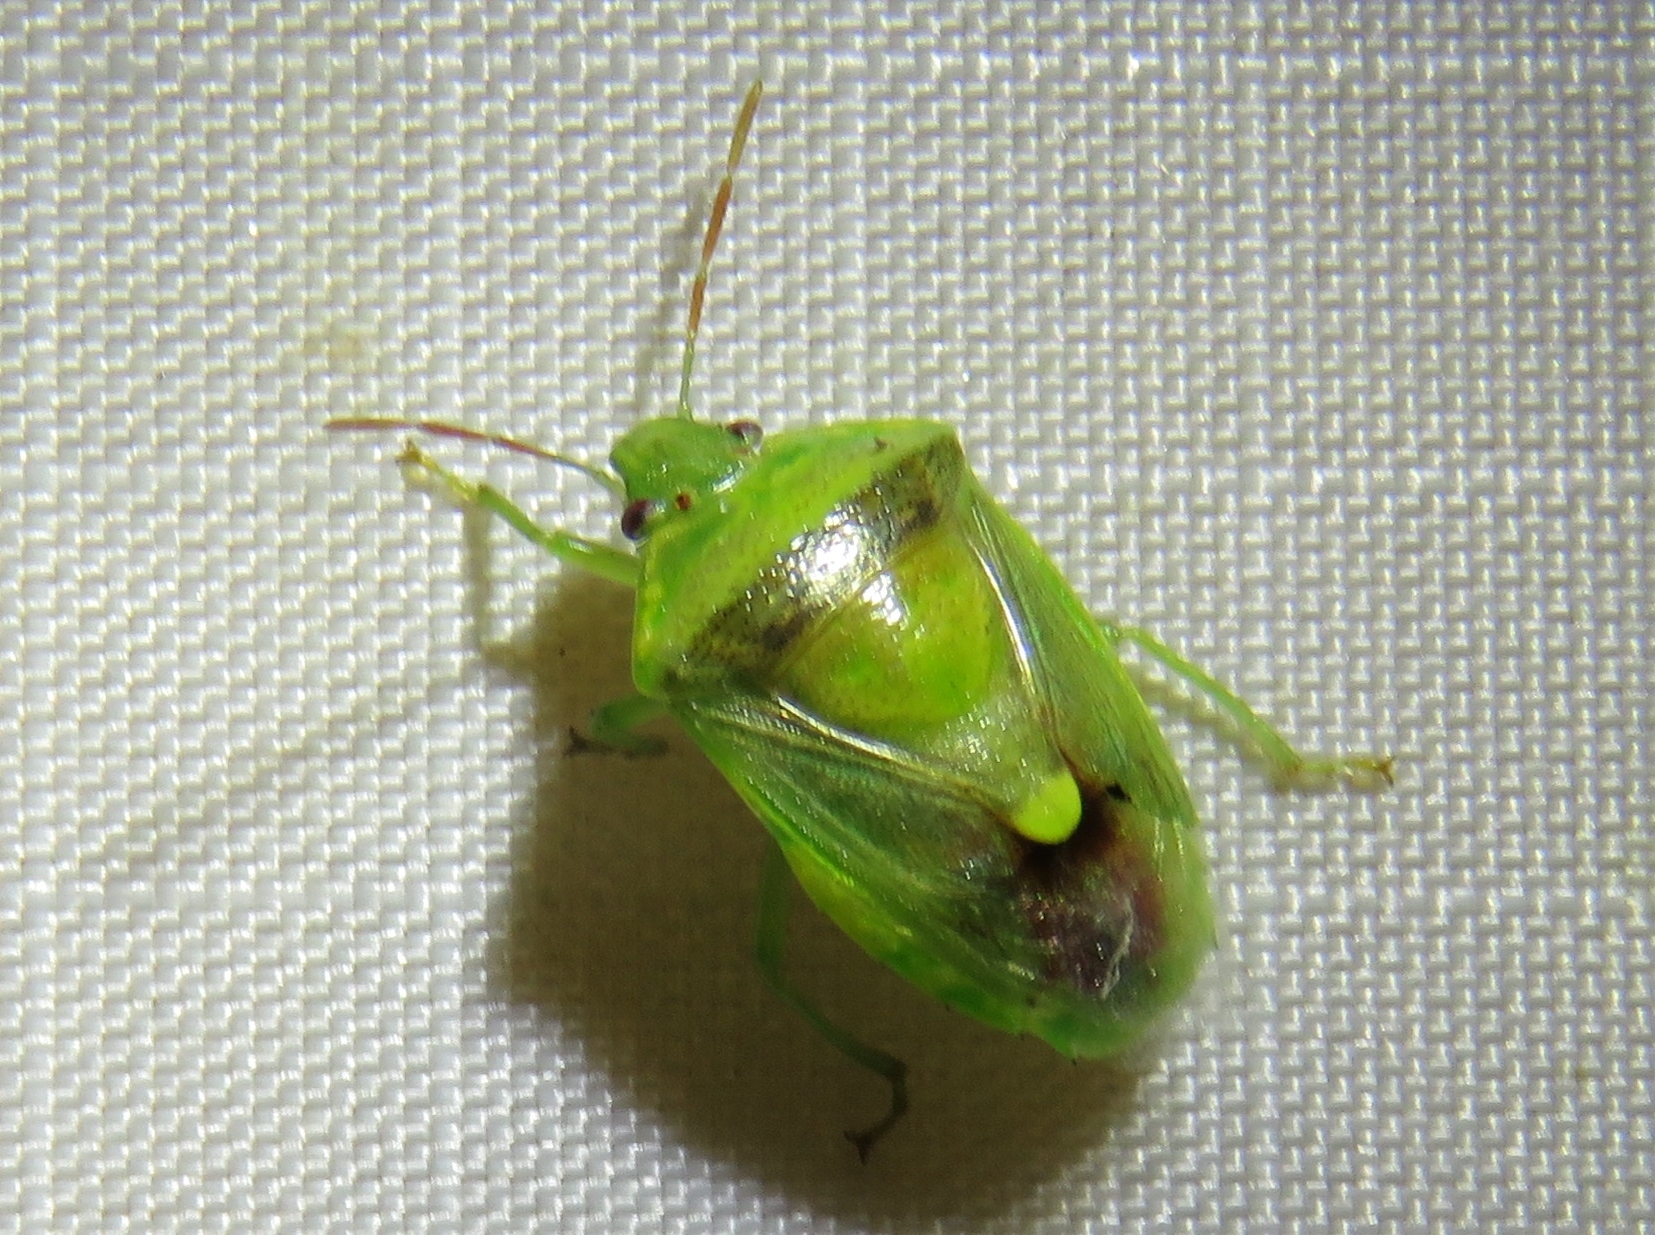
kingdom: Animalia
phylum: Arthropoda
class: Insecta
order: Hemiptera
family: Pentatomidae
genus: Banasa
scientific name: Banasa dimidiata
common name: Green burgundy stink bug
